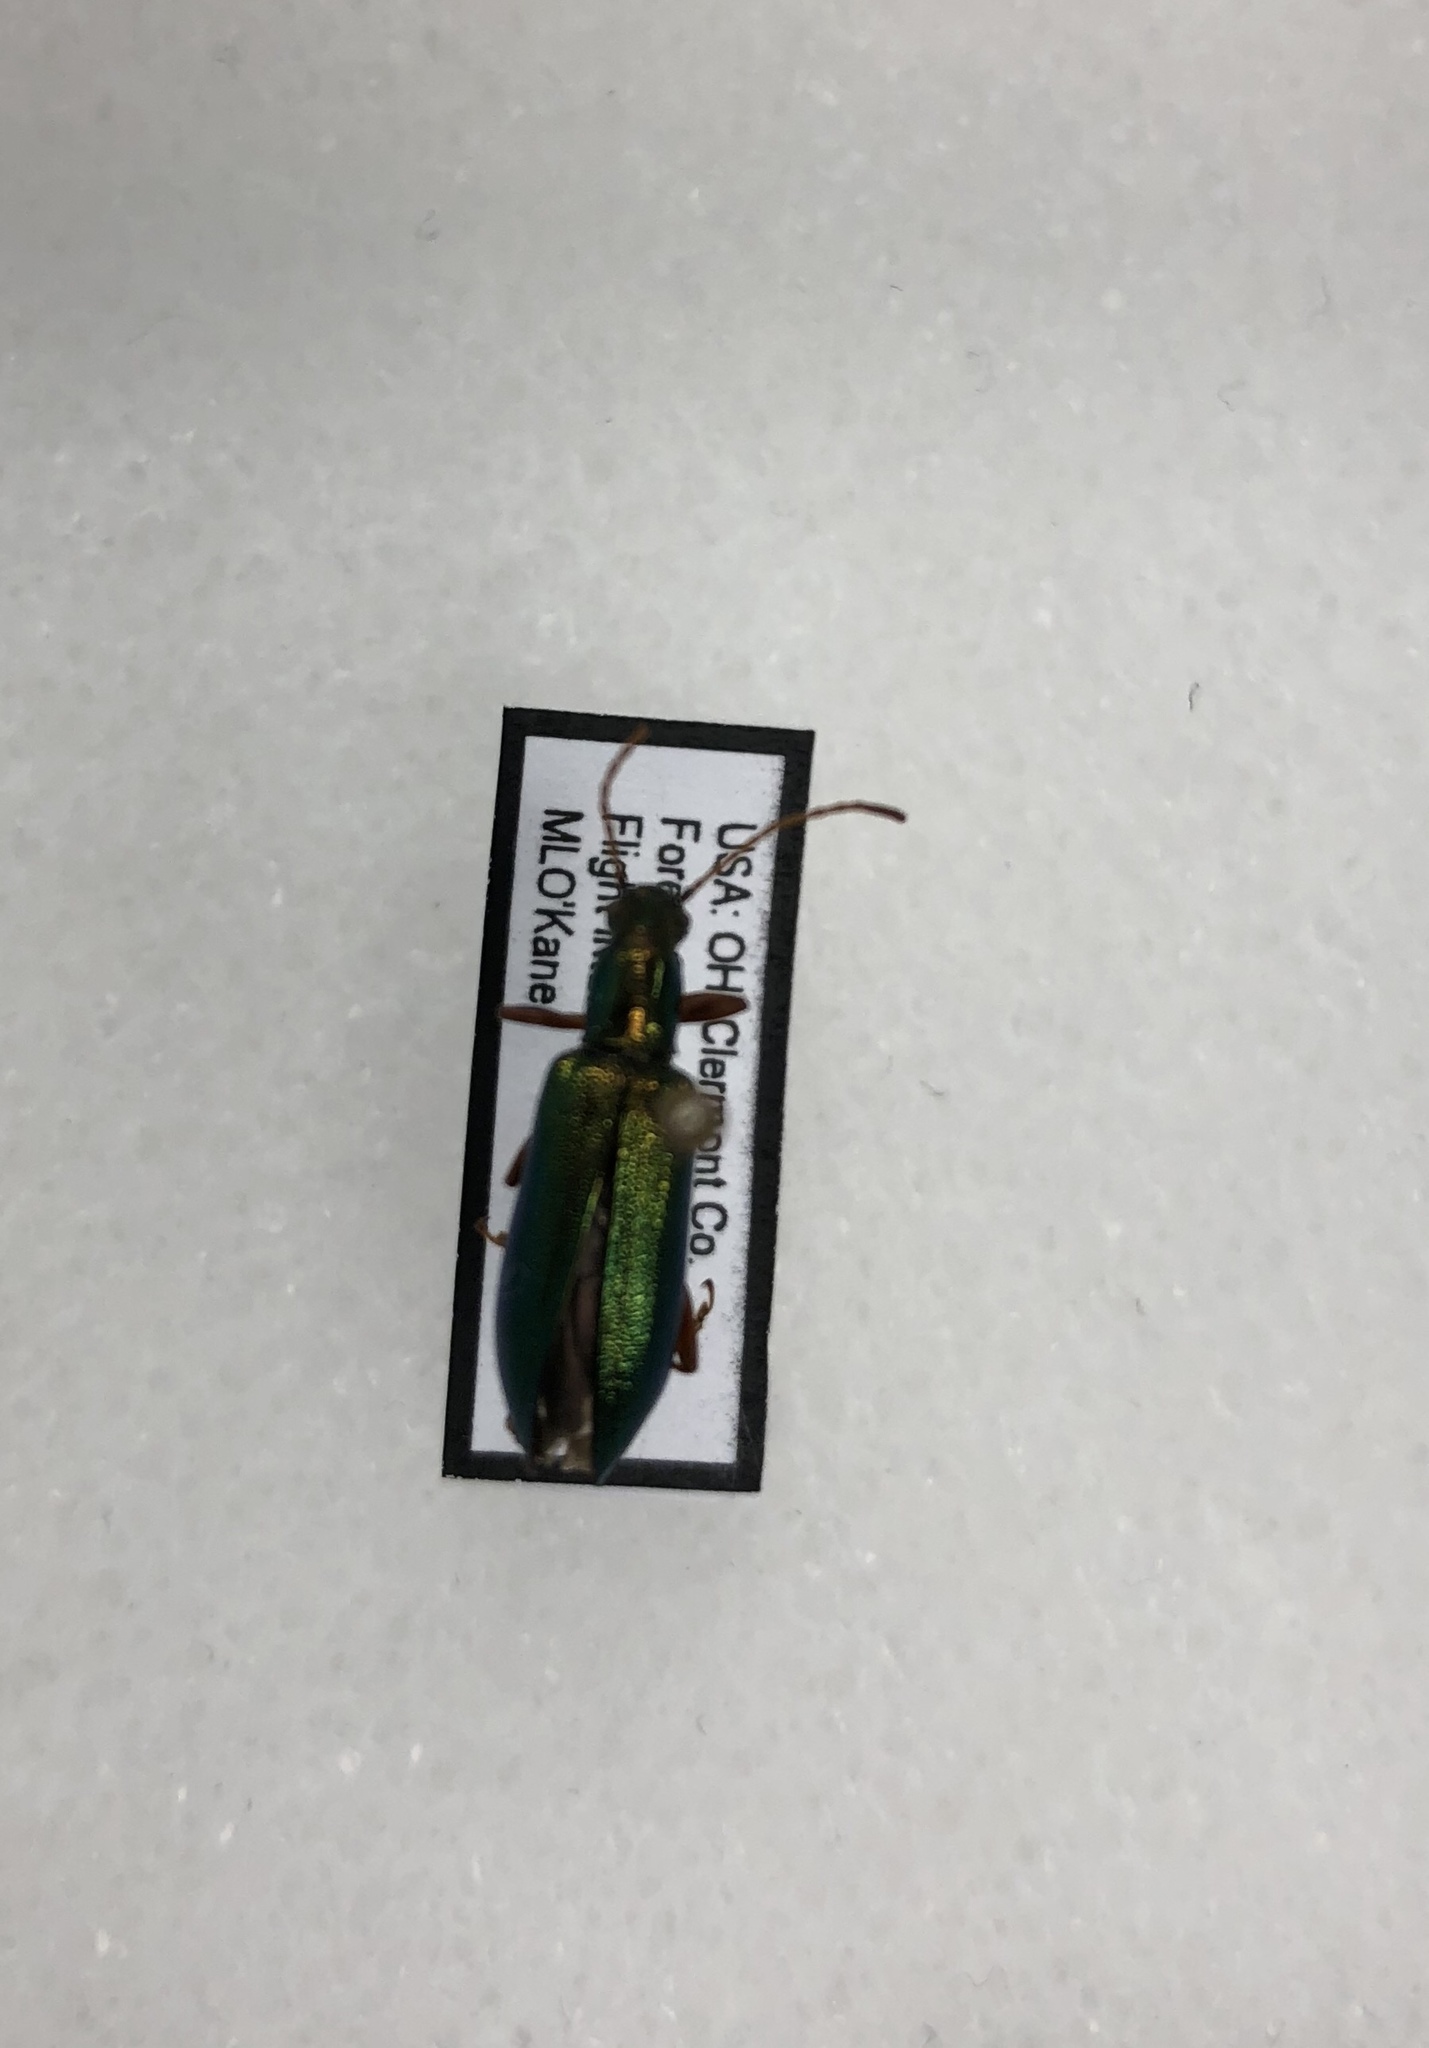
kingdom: Animalia
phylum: Arthropoda
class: Insecta
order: Coleoptera
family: Tenebrionidae
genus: Arthromacra
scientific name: Arthromacra aenea
